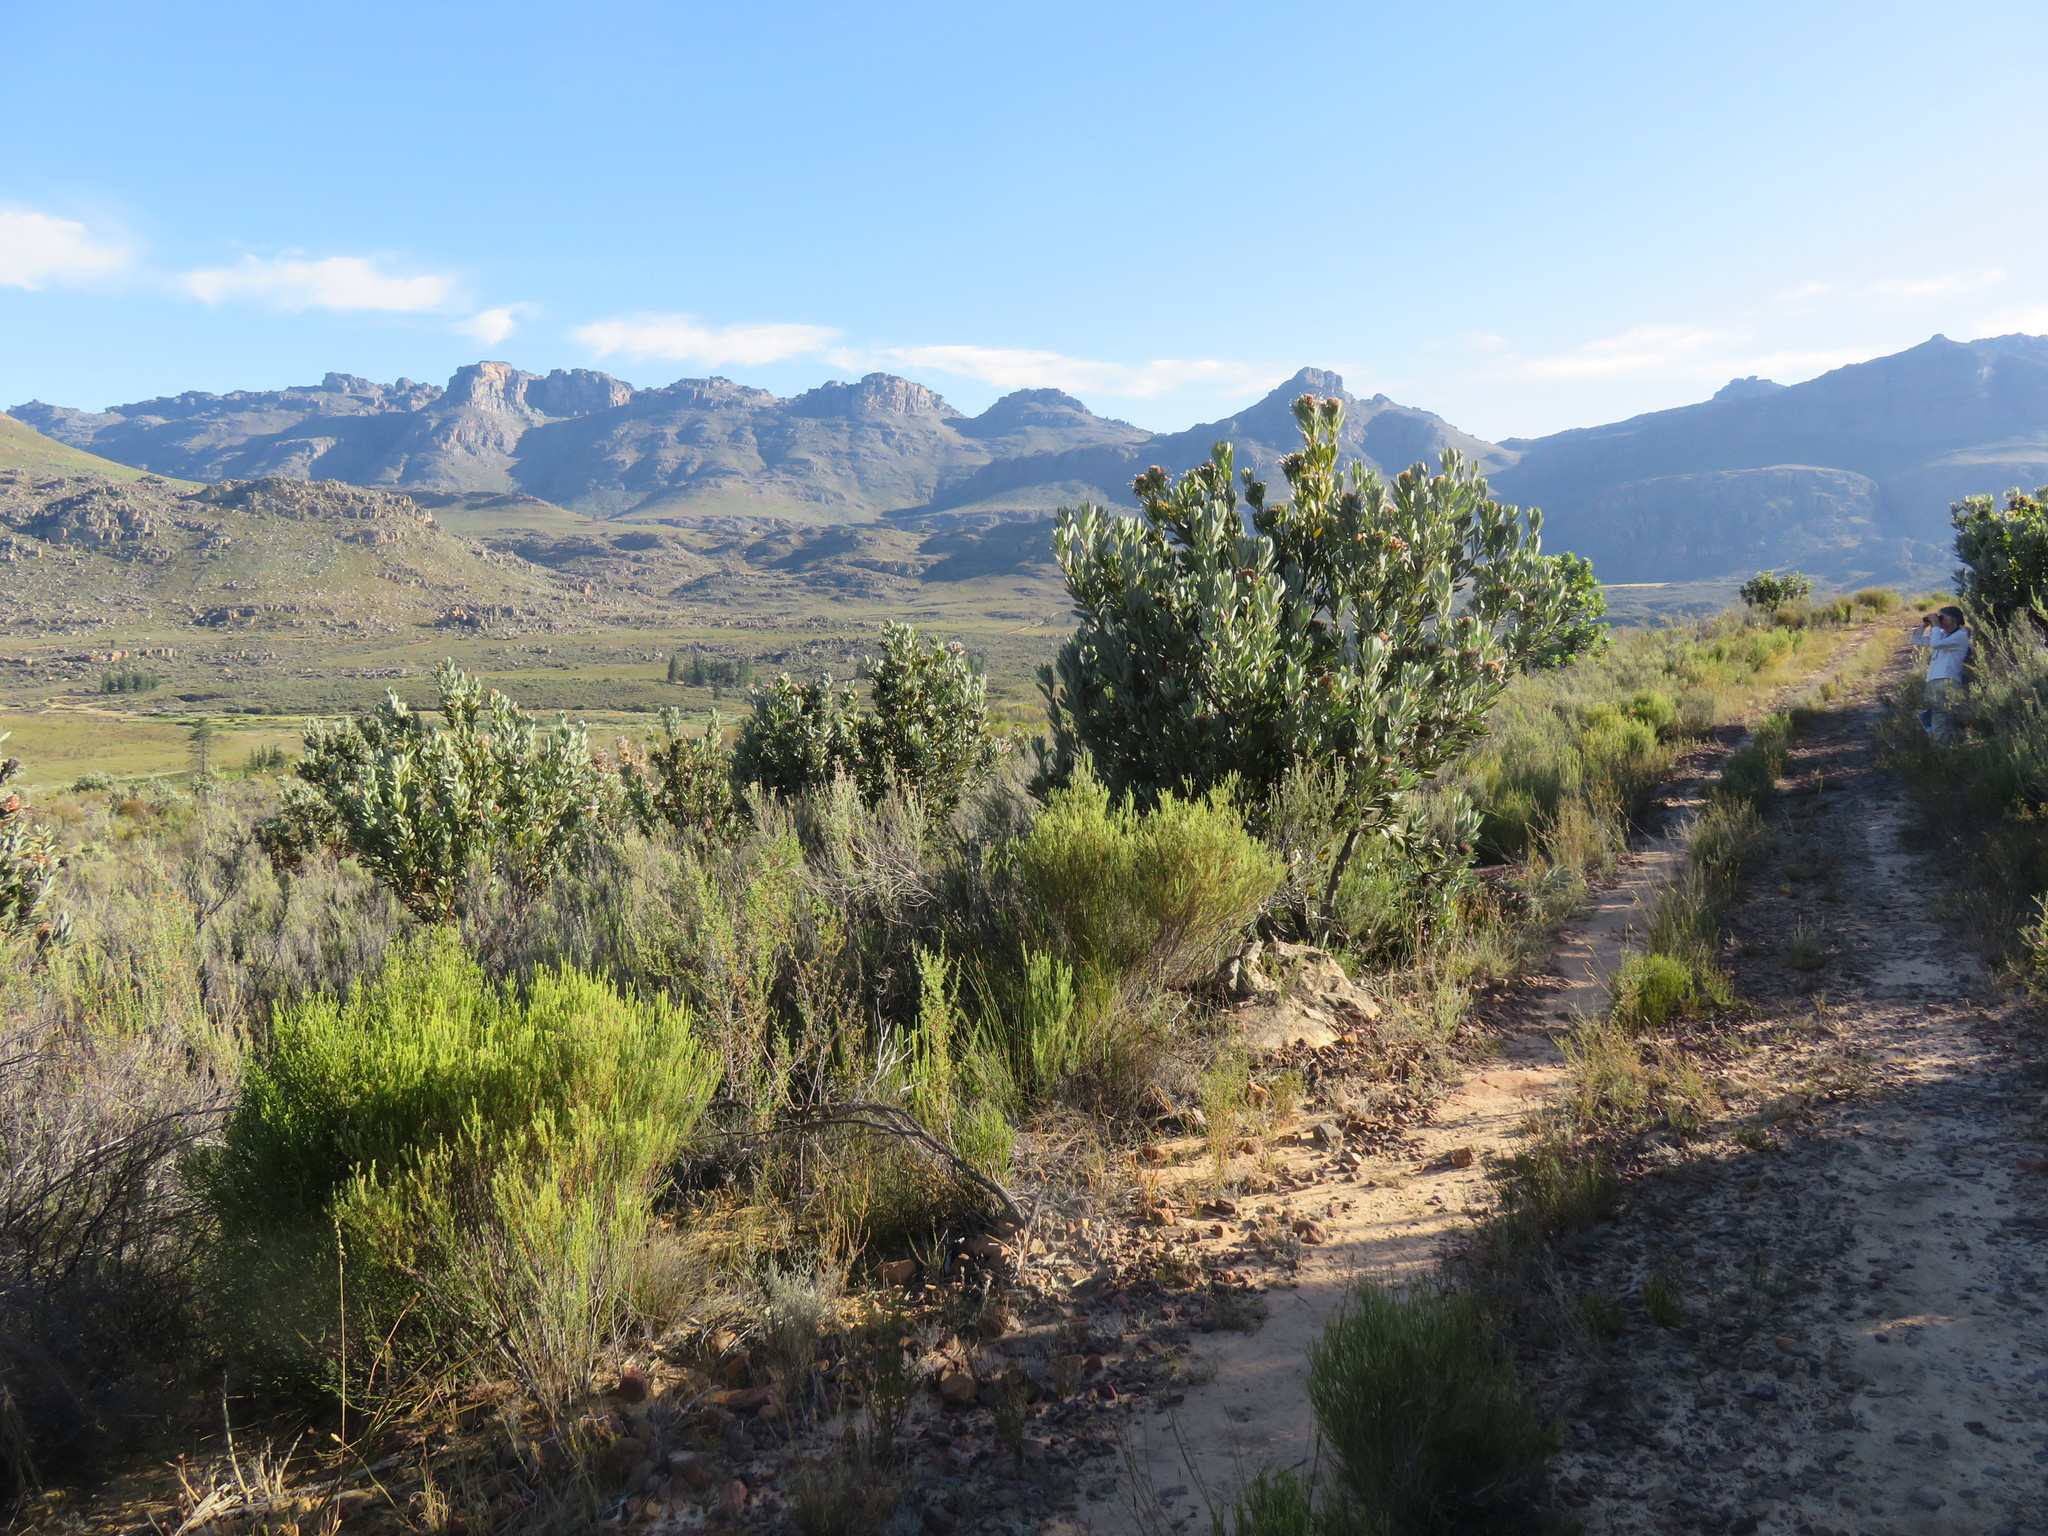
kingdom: Plantae
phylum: Tracheophyta
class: Magnoliopsida
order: Proteales
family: Proteaceae
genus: Protea
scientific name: Protea laurifolia
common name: Grey-leaf sugarbsh
